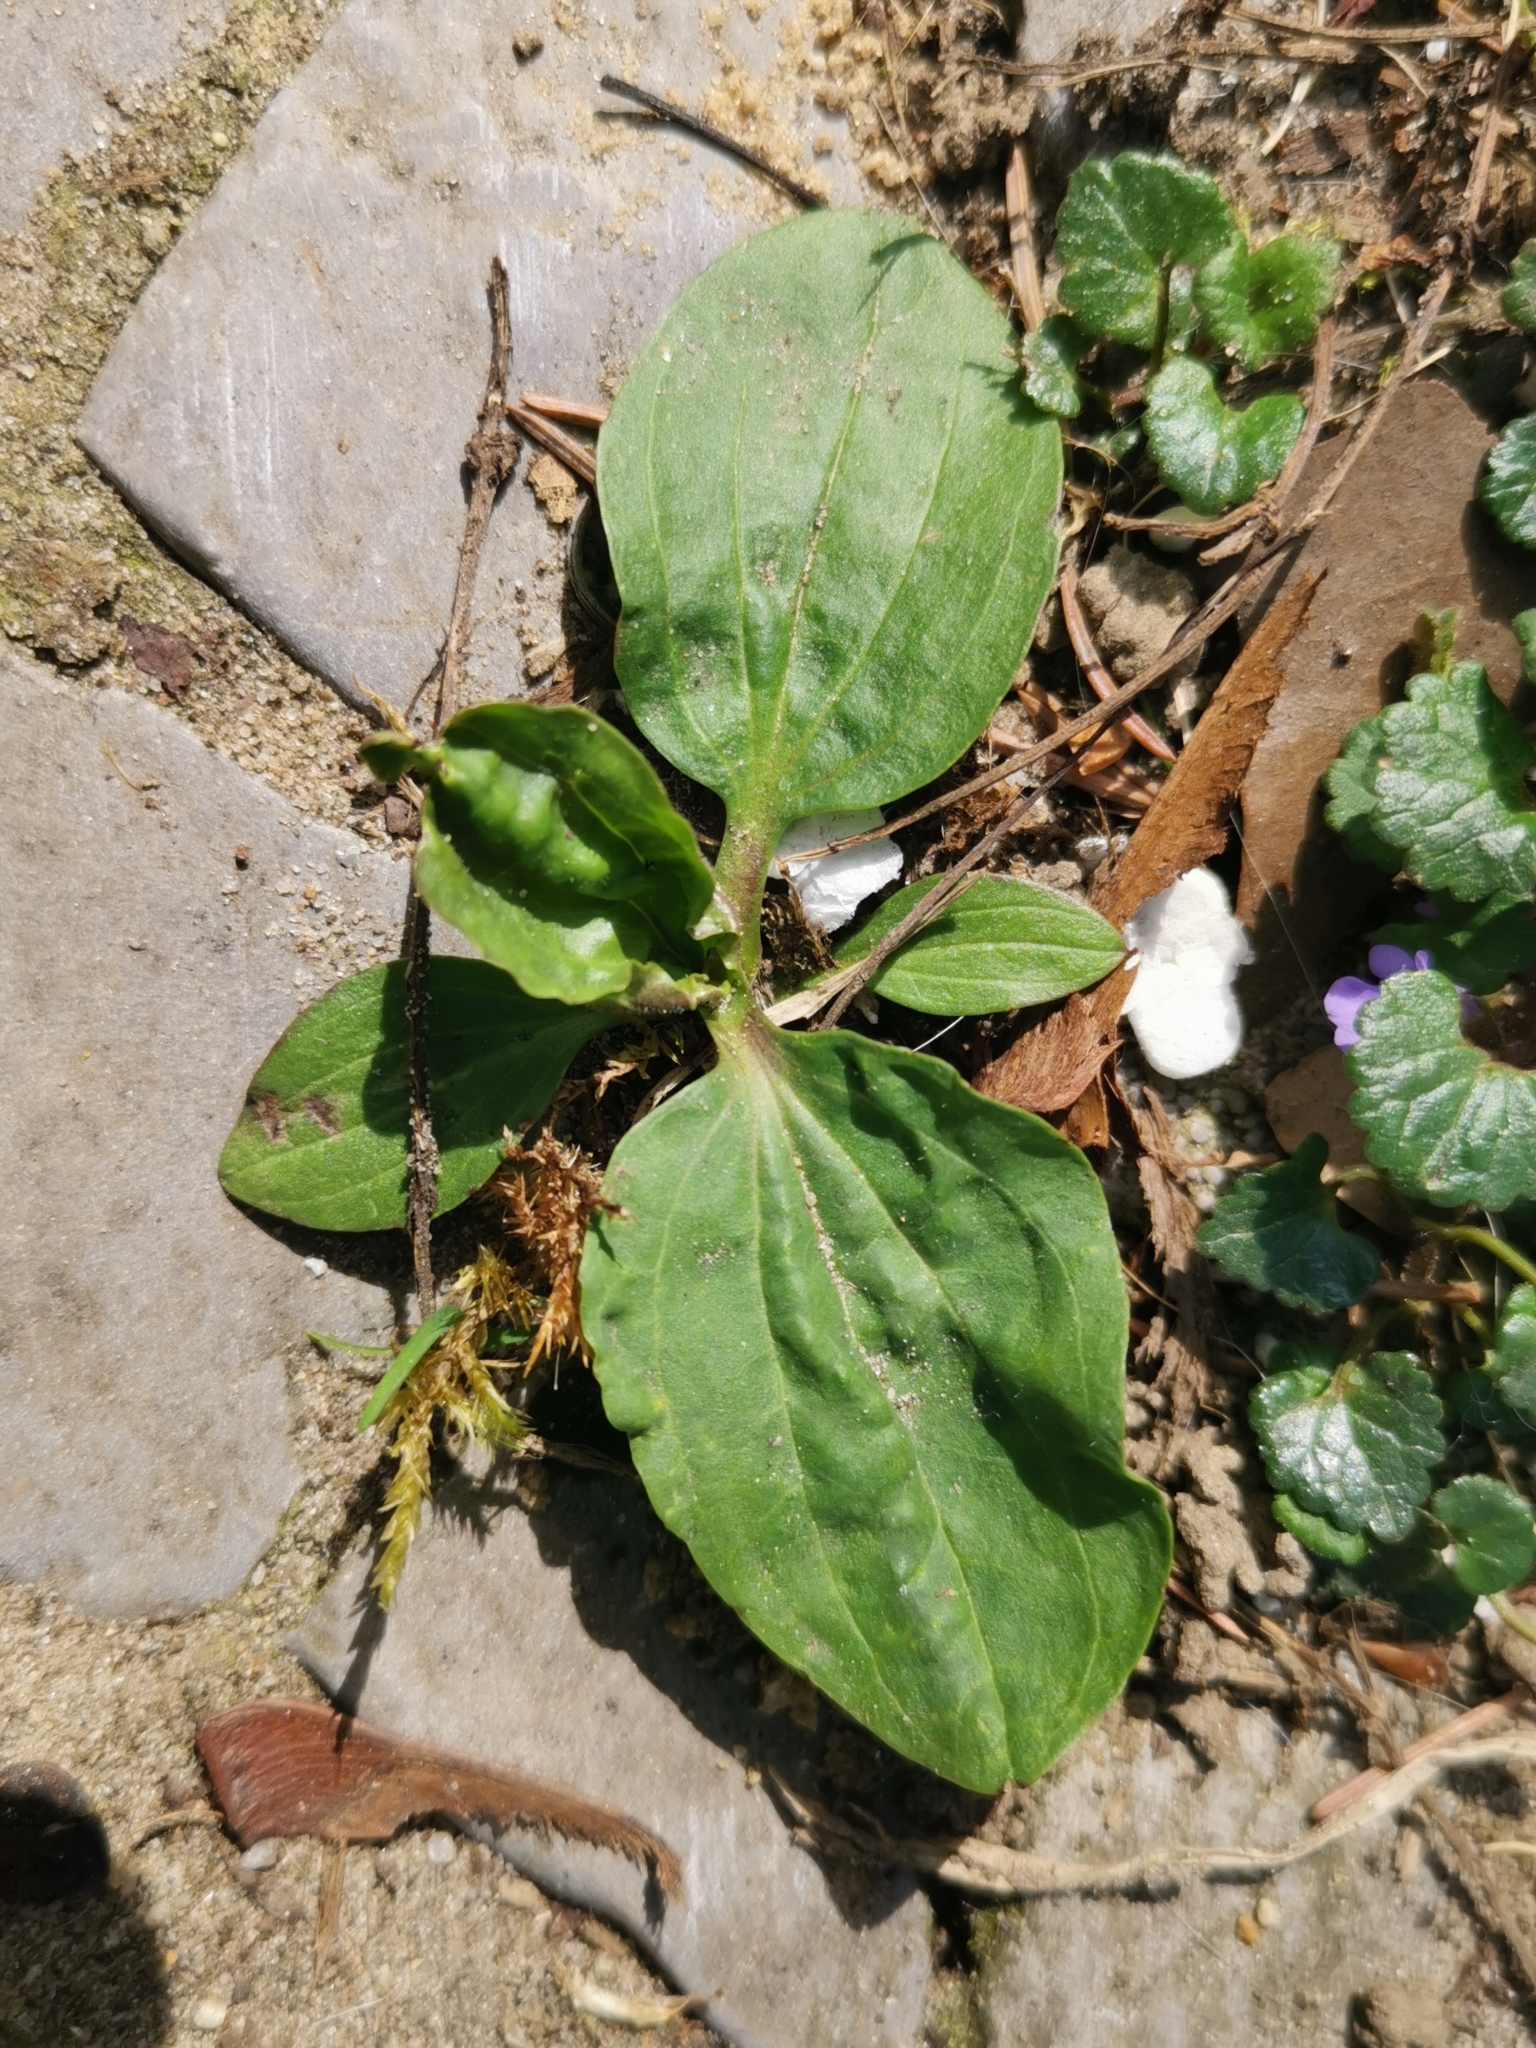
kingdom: Plantae
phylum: Tracheophyta
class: Magnoliopsida
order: Lamiales
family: Plantaginaceae
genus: Plantago
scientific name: Plantago major
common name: Common plantain
